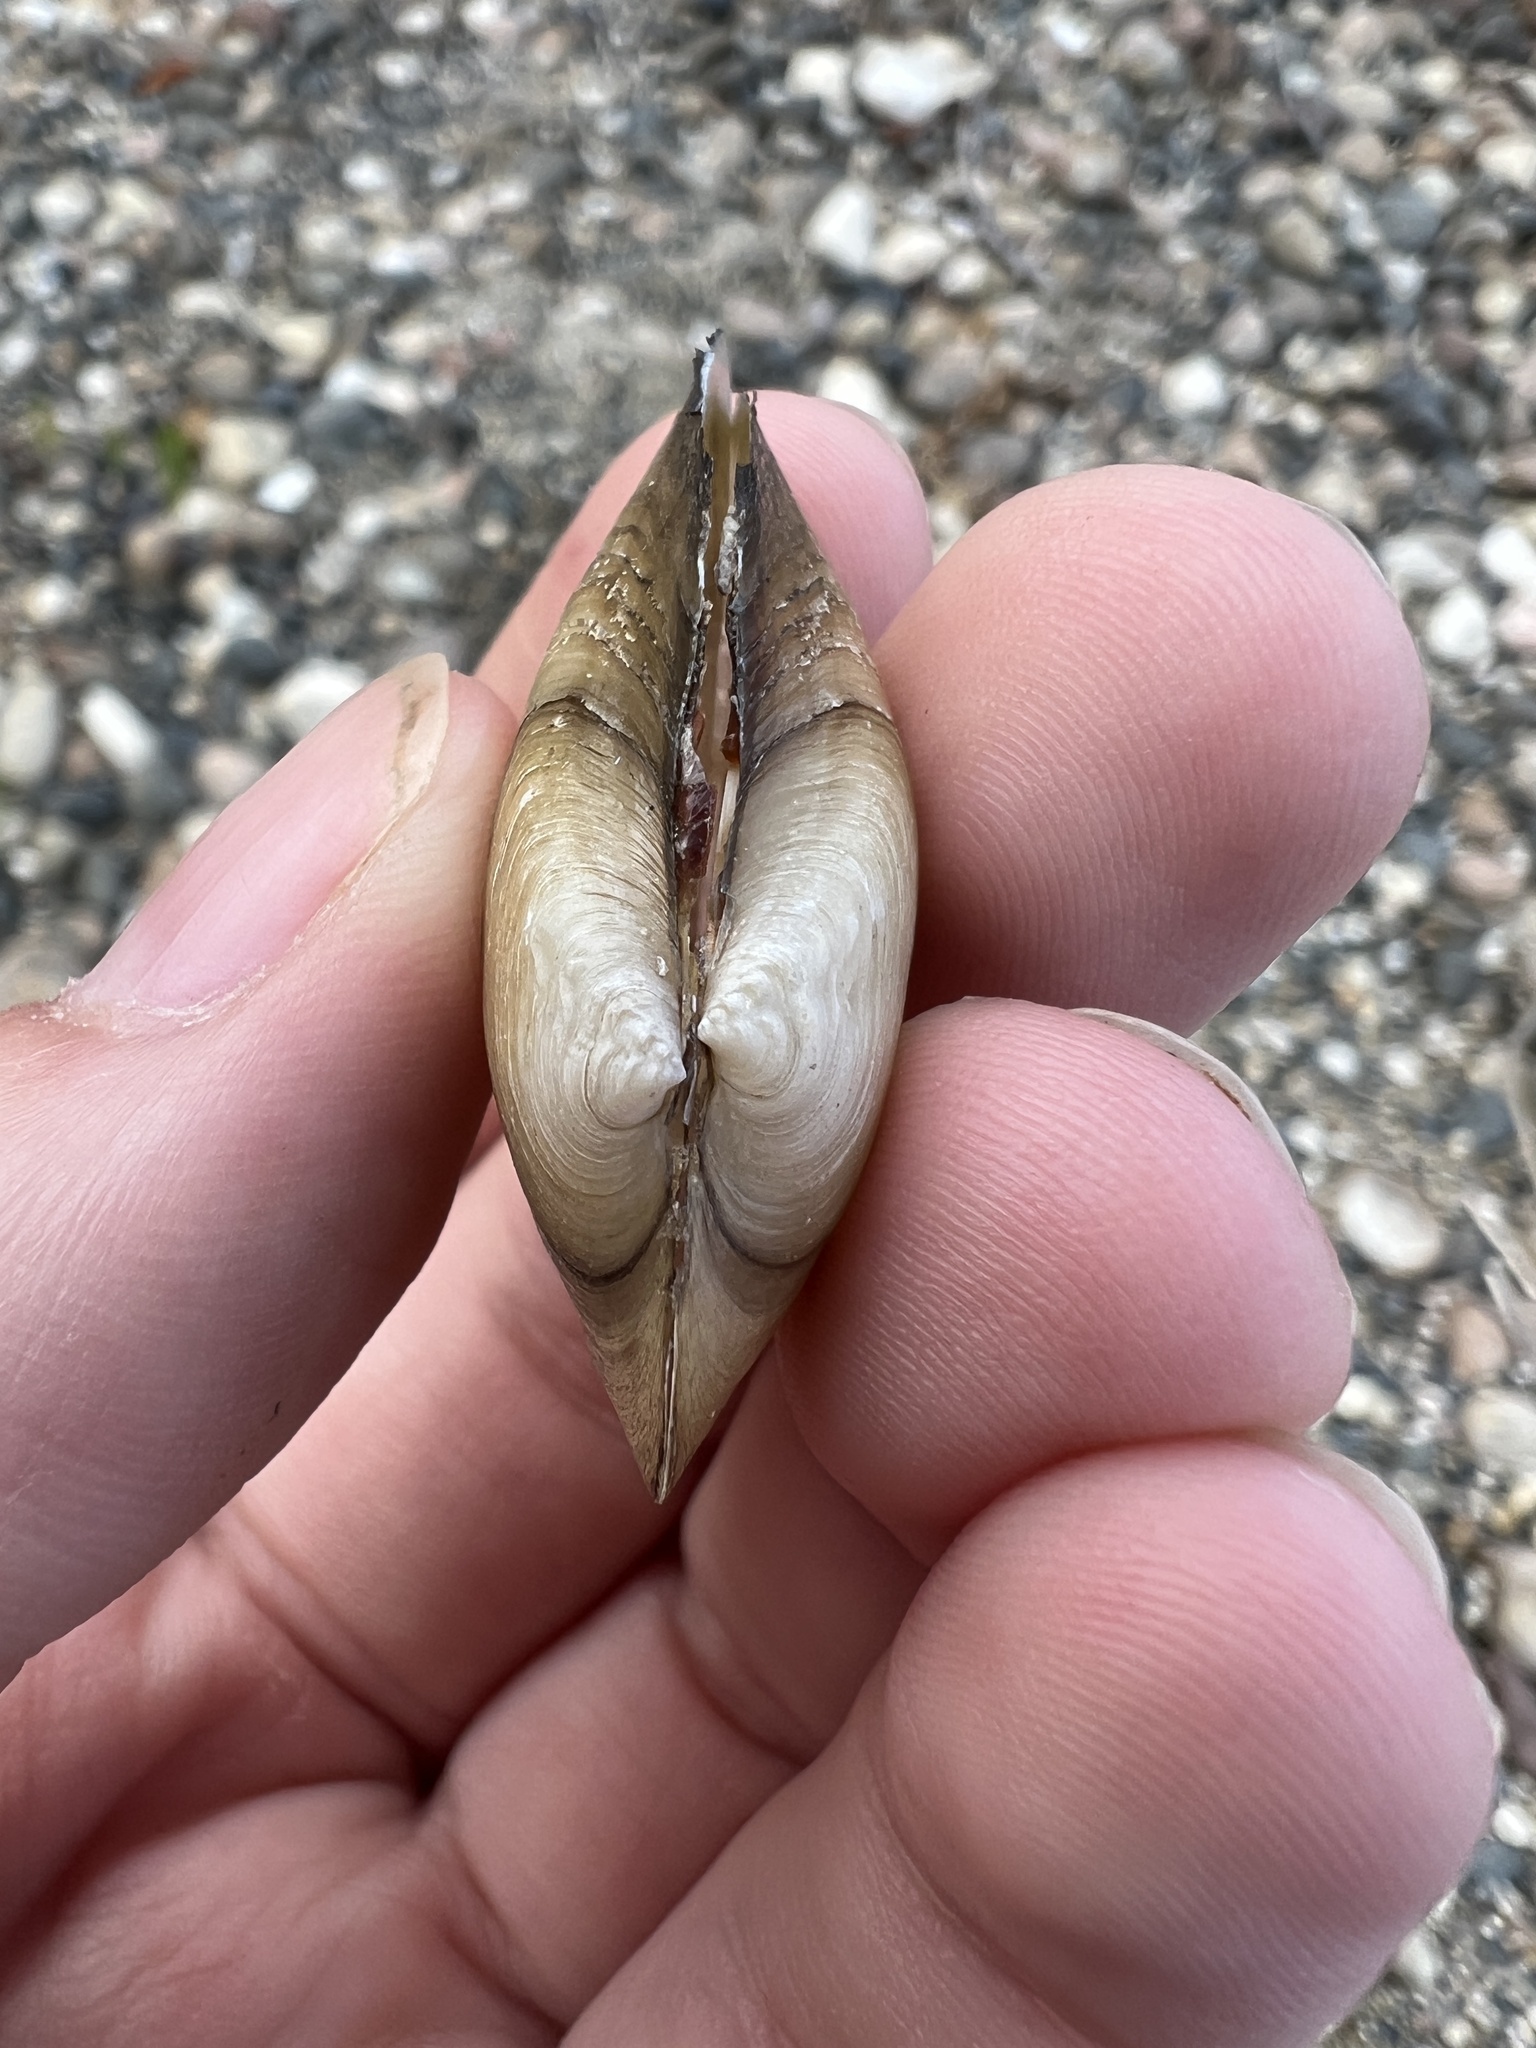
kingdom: Animalia
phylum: Mollusca
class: Bivalvia
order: Unionida
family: Unionidae
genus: Pyganodon
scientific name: Pyganodon grandis
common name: Giant floater
